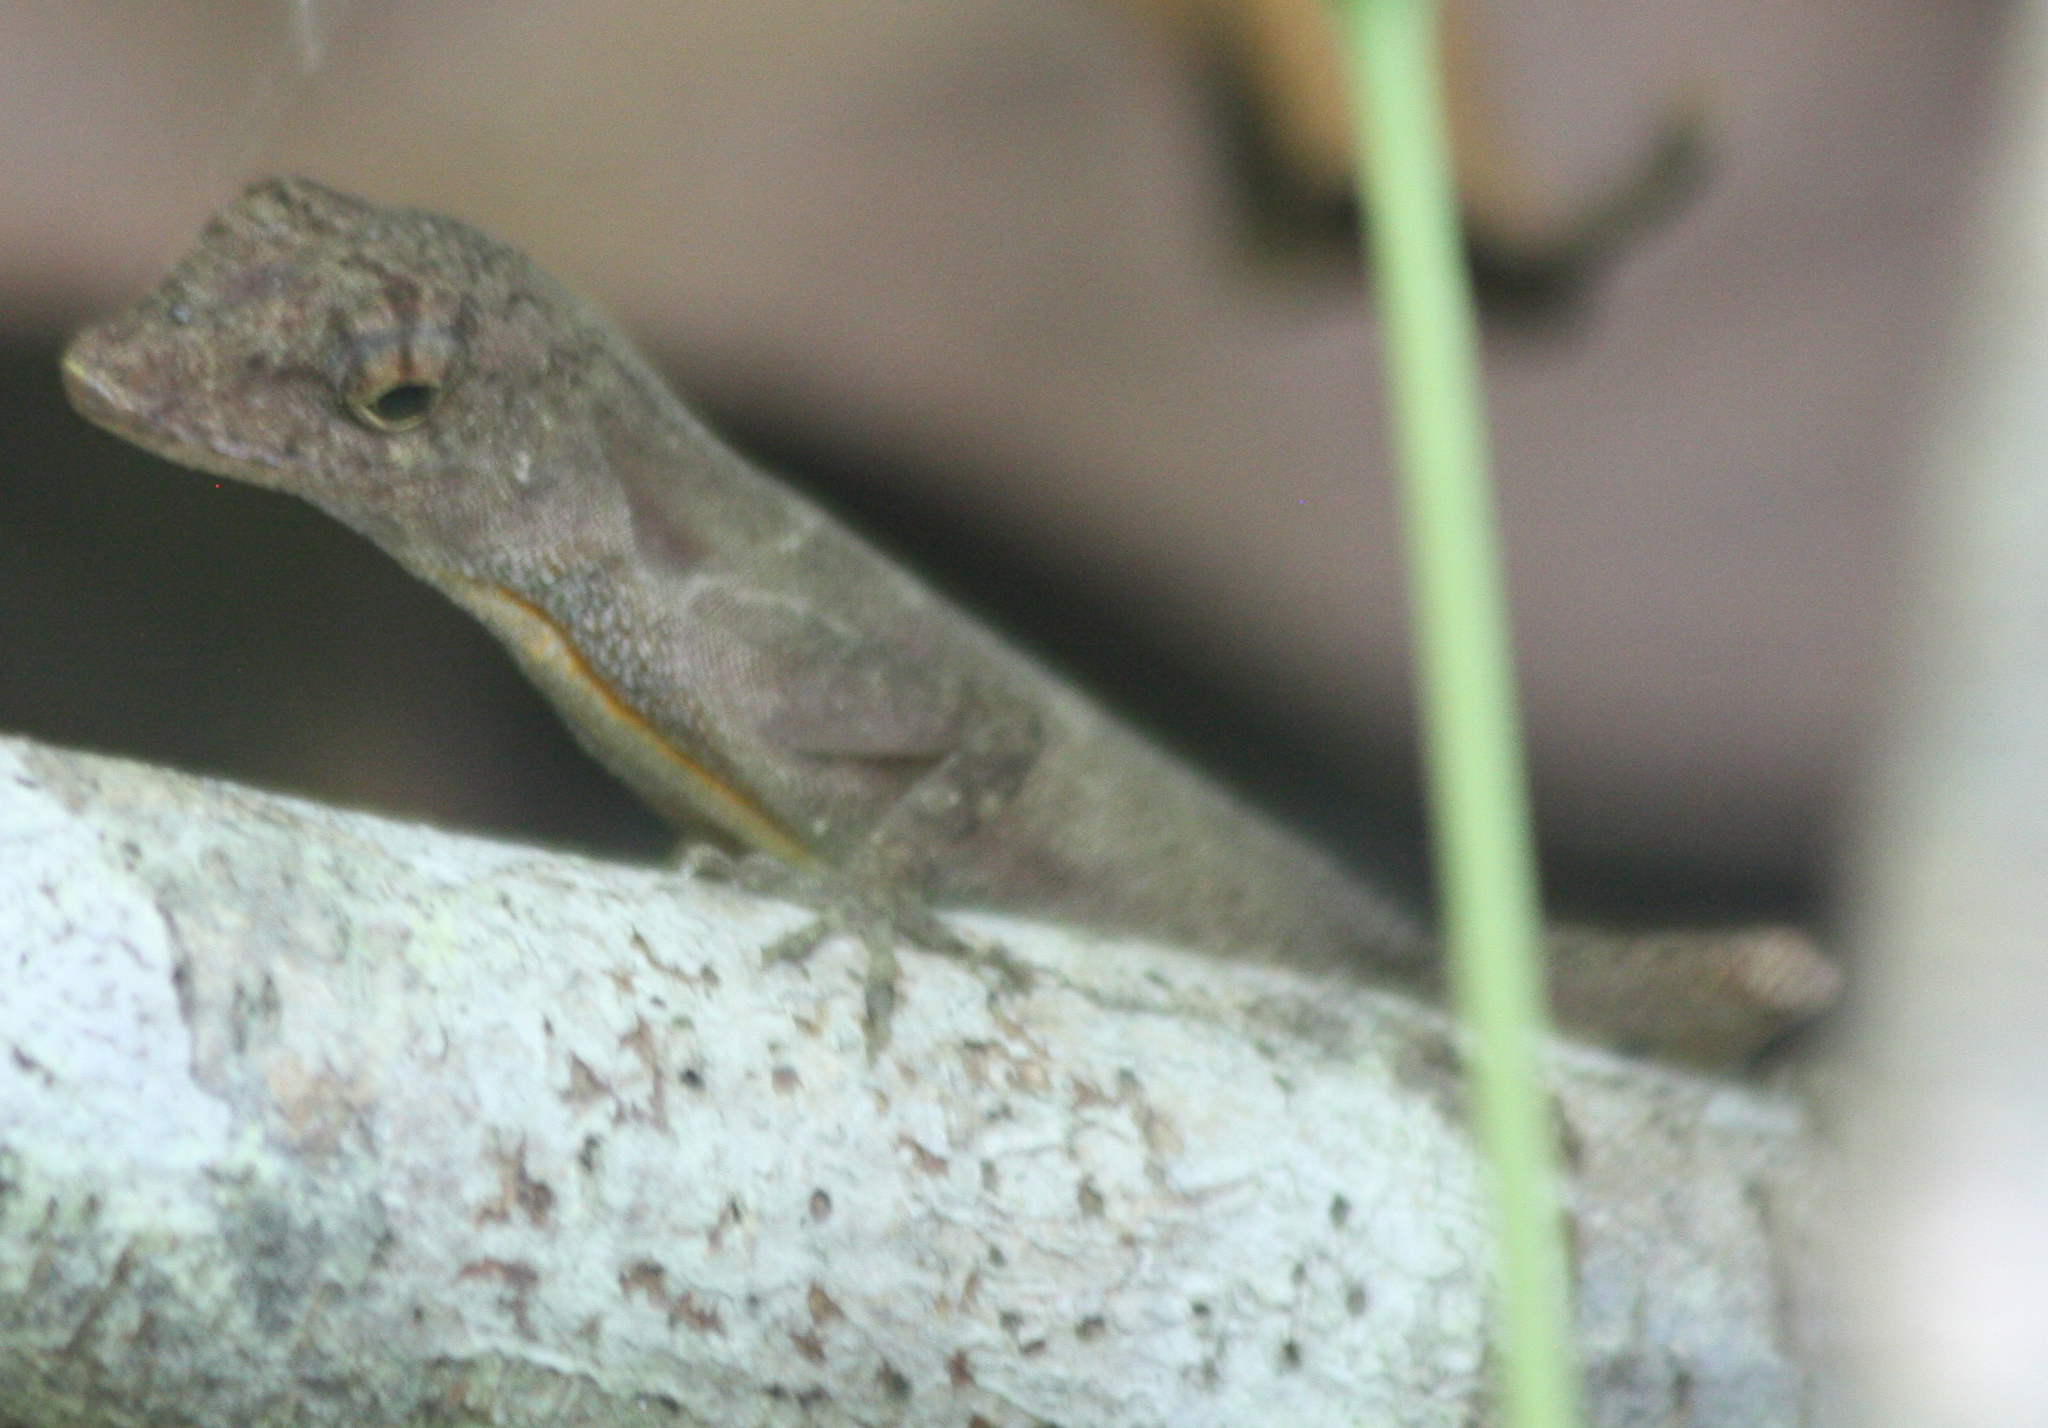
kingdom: Animalia
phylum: Chordata
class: Squamata
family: Dactyloidae
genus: Anolis
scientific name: Anolis osa
